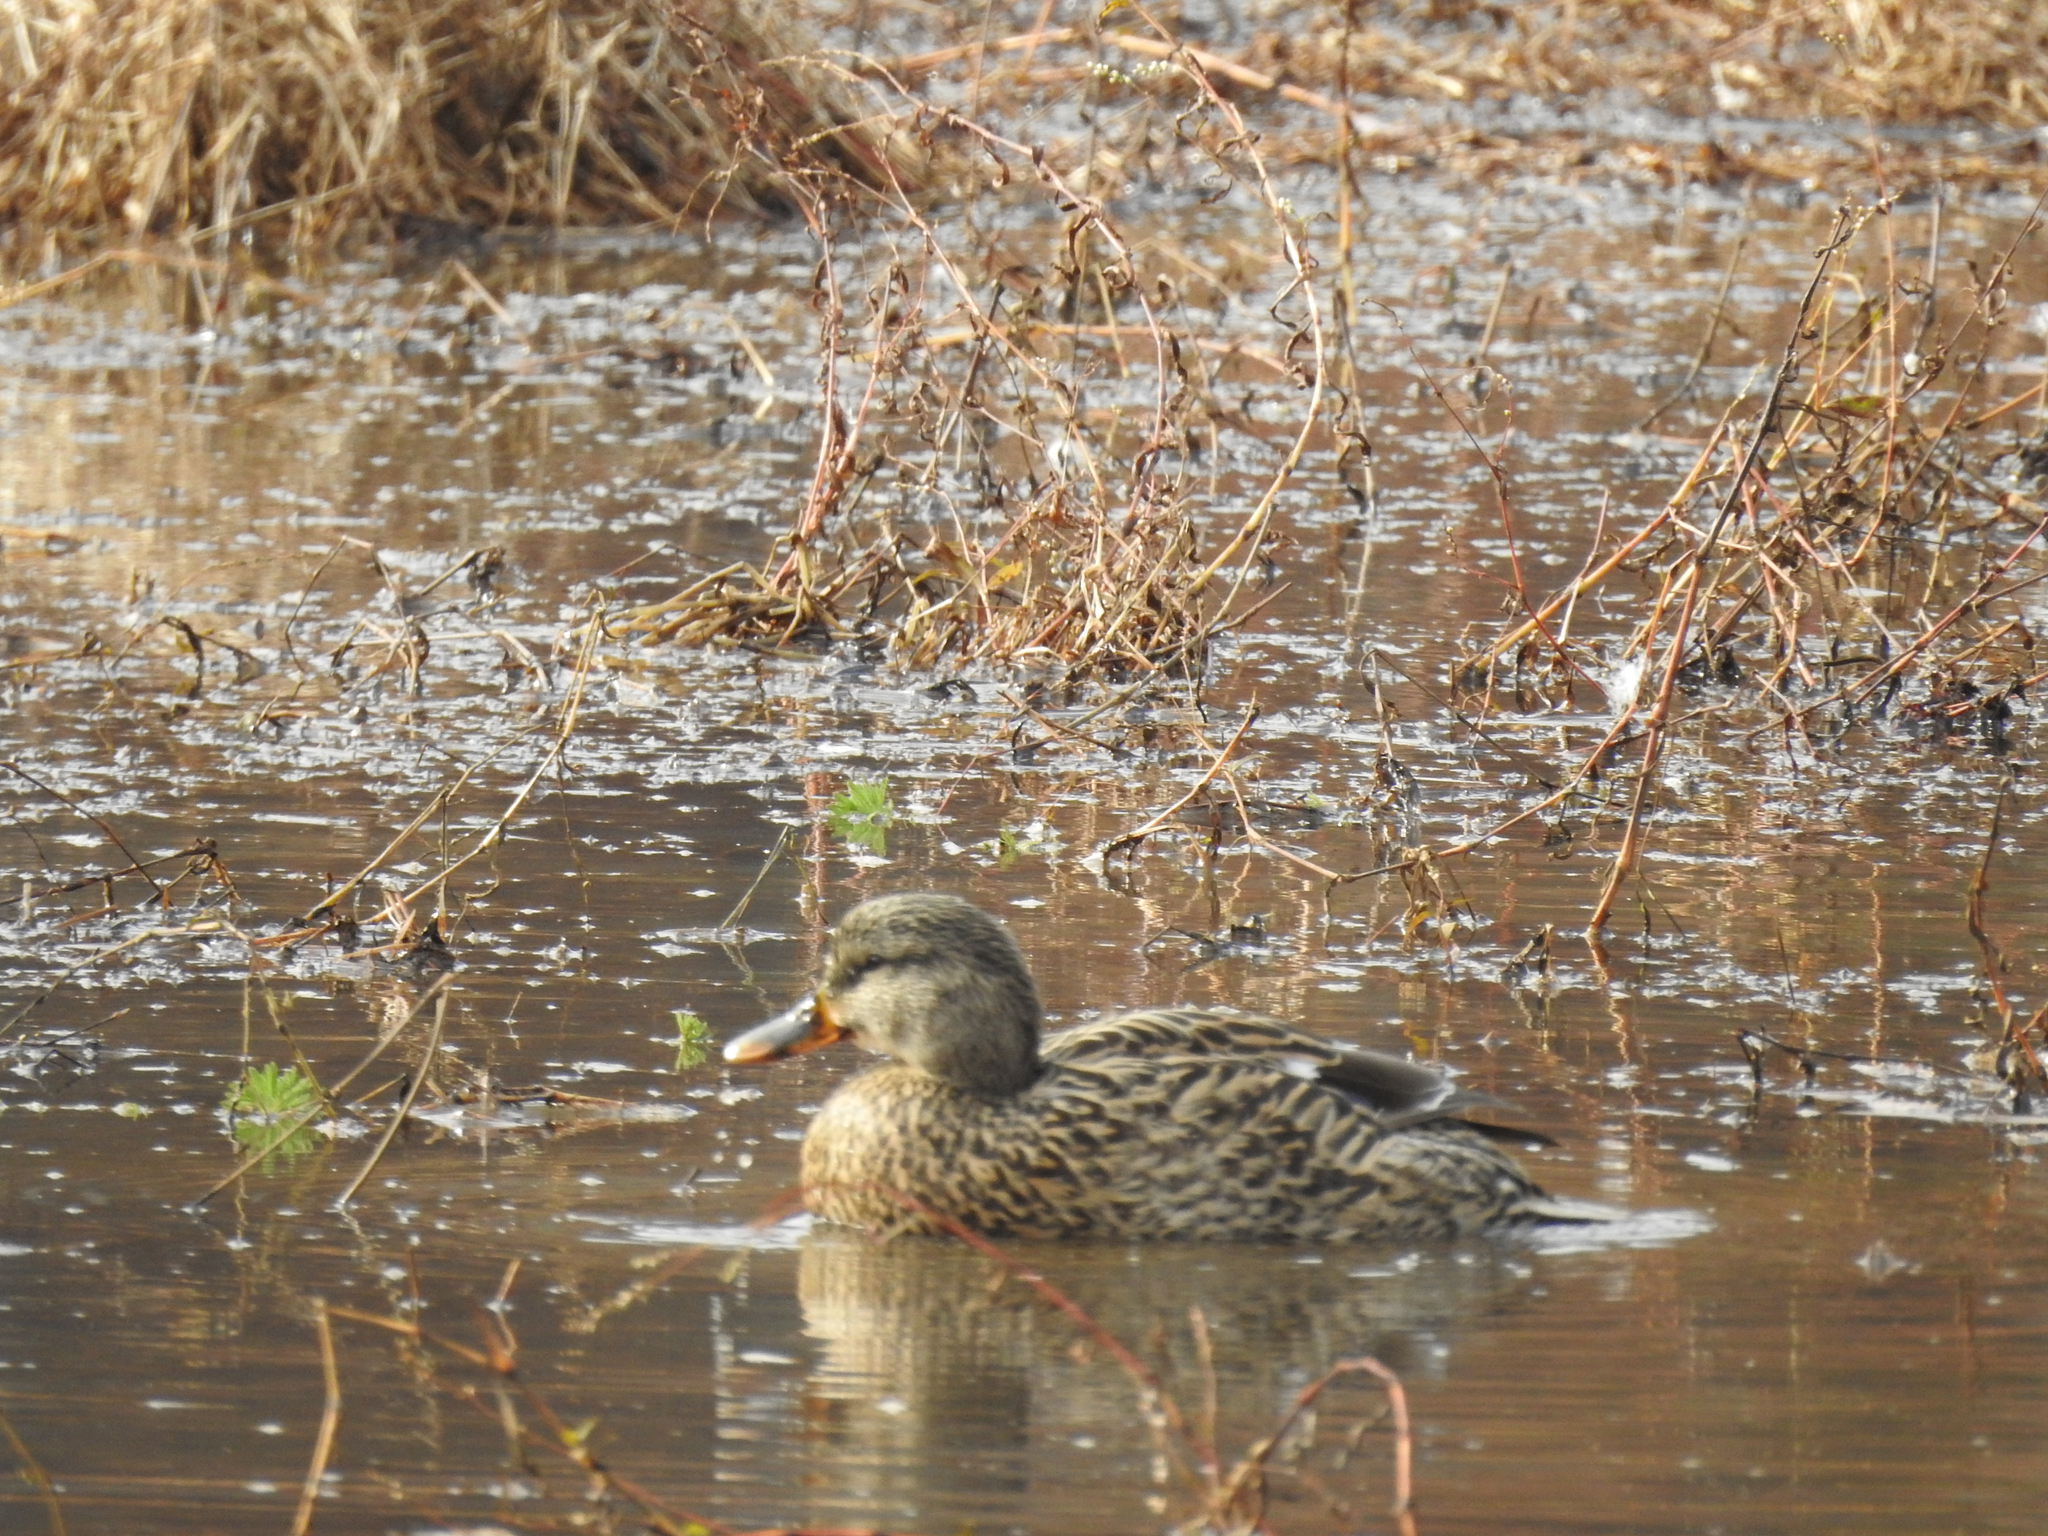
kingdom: Animalia
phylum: Chordata
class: Aves
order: Anseriformes
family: Anatidae
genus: Anas
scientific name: Anas platyrhynchos
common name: Mallard
